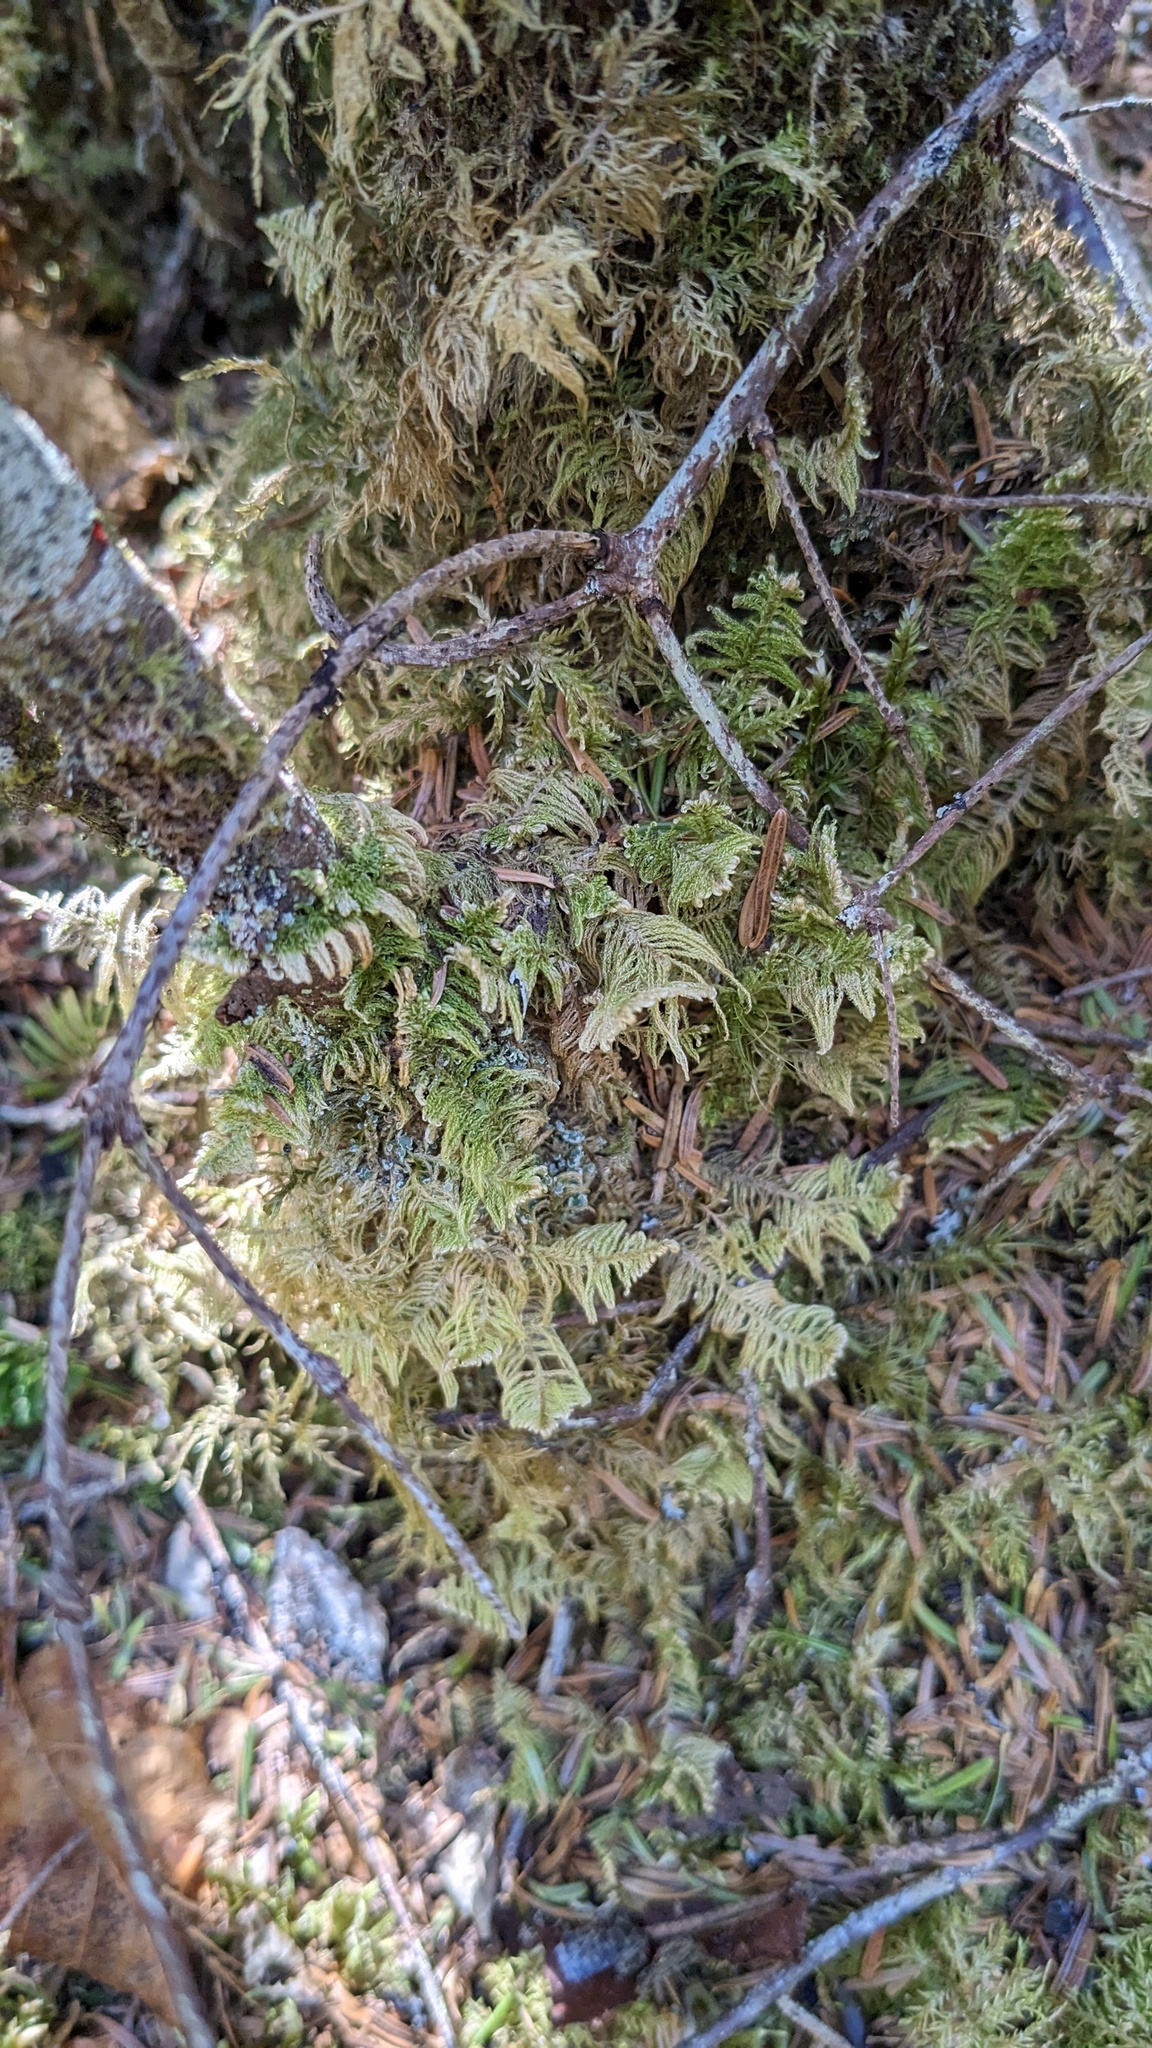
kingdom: Plantae
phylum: Bryophyta
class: Bryopsida
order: Hypnales
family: Pylaisiaceae
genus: Ptilium
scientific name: Ptilium crista-castrensis
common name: Knight's plume moss
